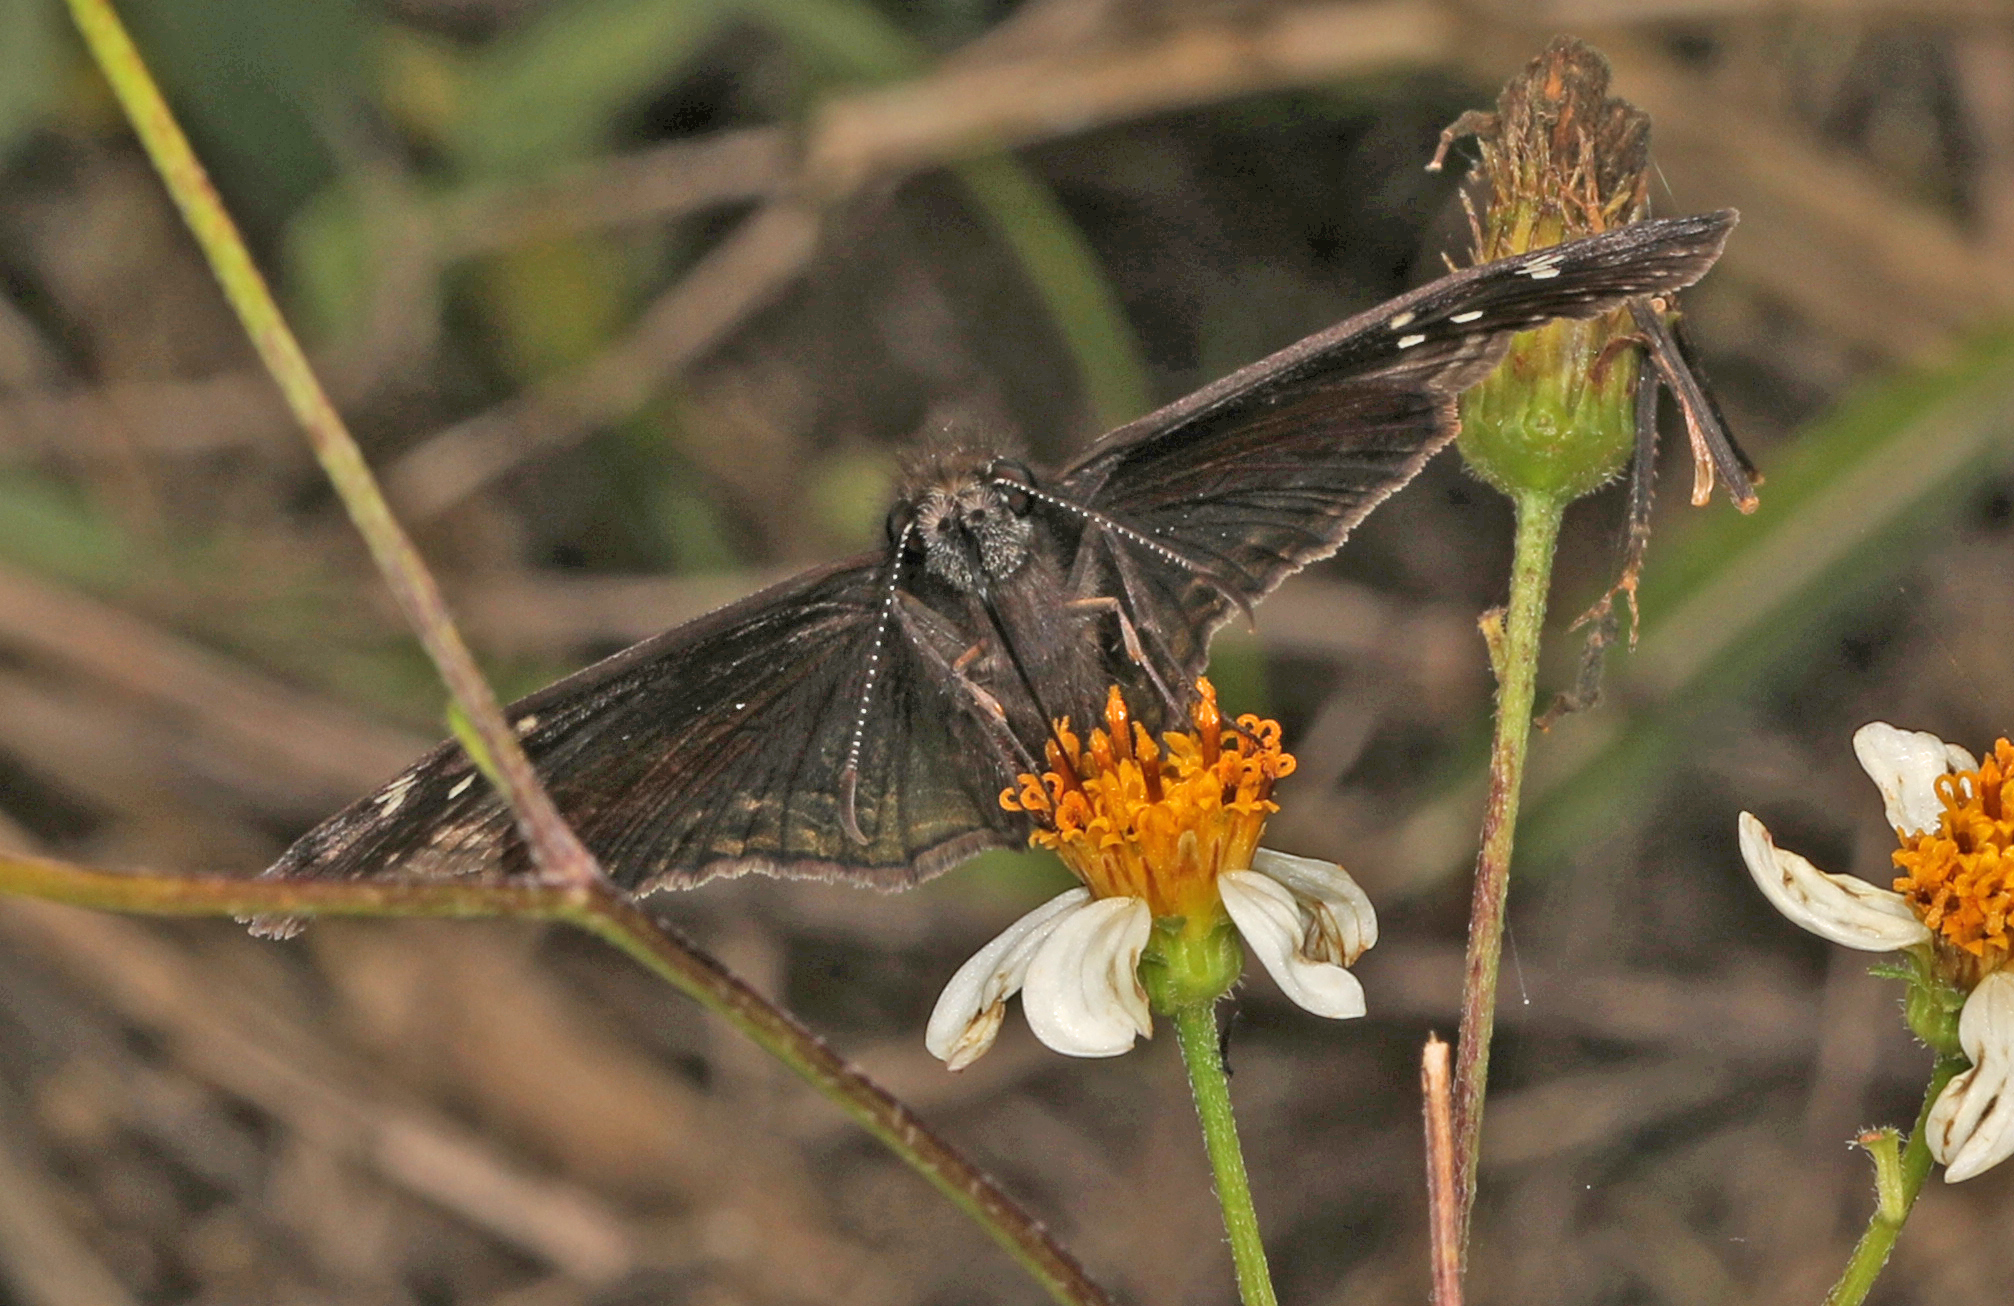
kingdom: Animalia
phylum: Arthropoda
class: Insecta
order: Lepidoptera
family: Hesperiidae
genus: Erynnis
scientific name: Erynnis horatius
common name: Horace's duskywing
